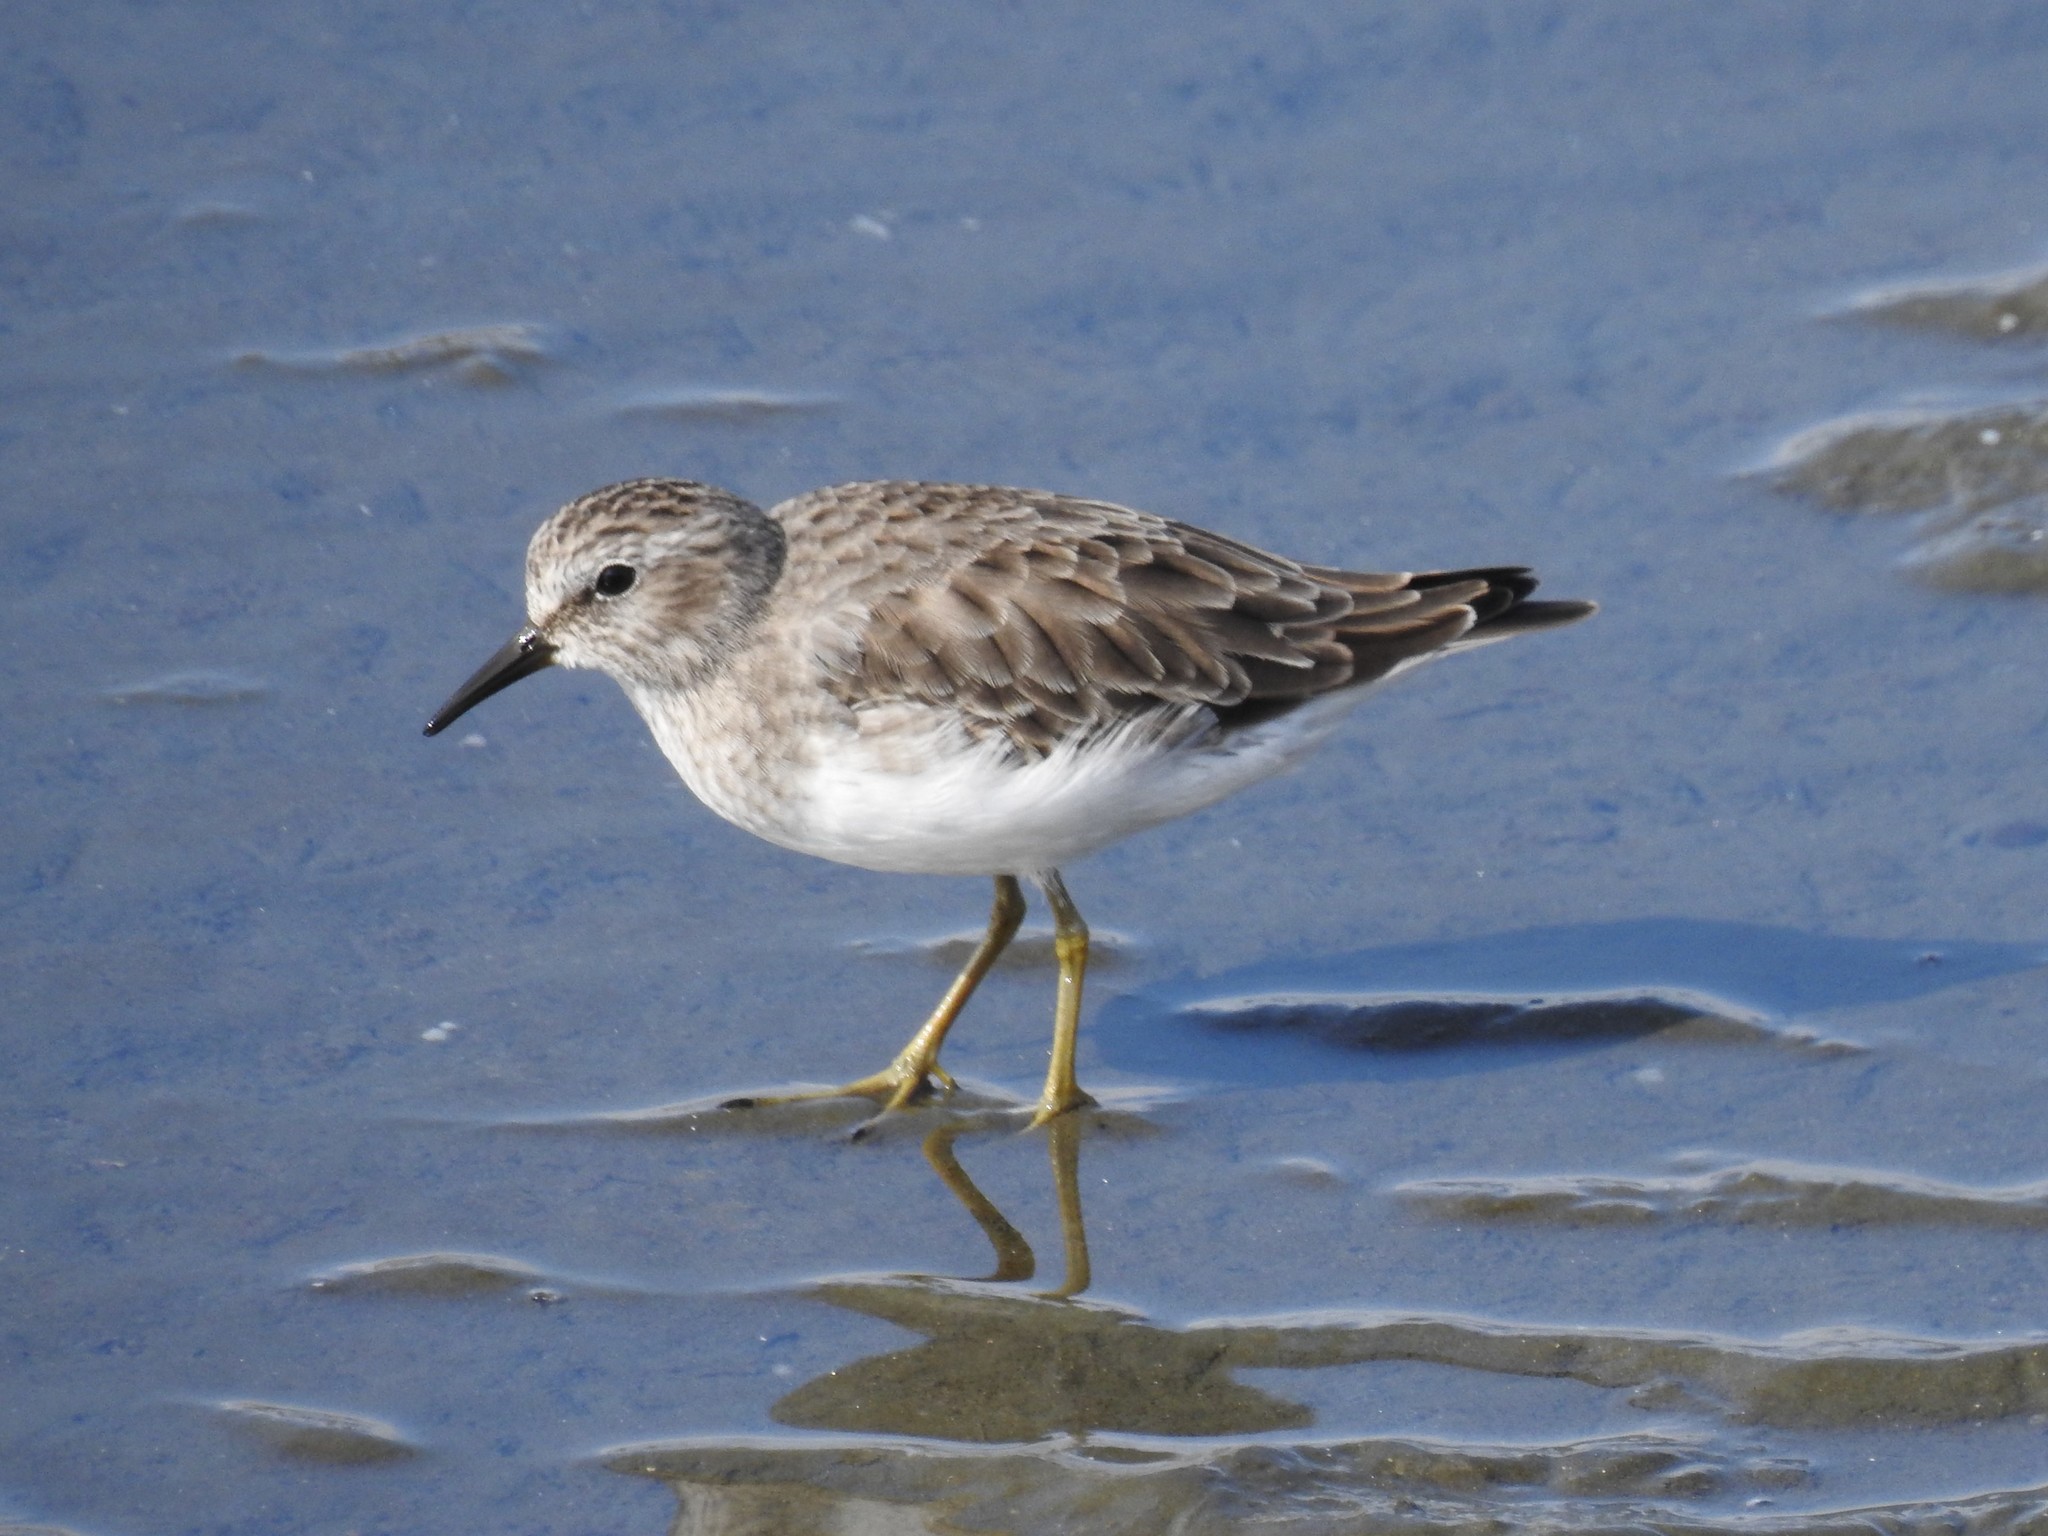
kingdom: Animalia
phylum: Chordata
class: Aves
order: Charadriiformes
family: Scolopacidae
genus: Calidris
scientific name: Calidris minutilla
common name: Least sandpiper
